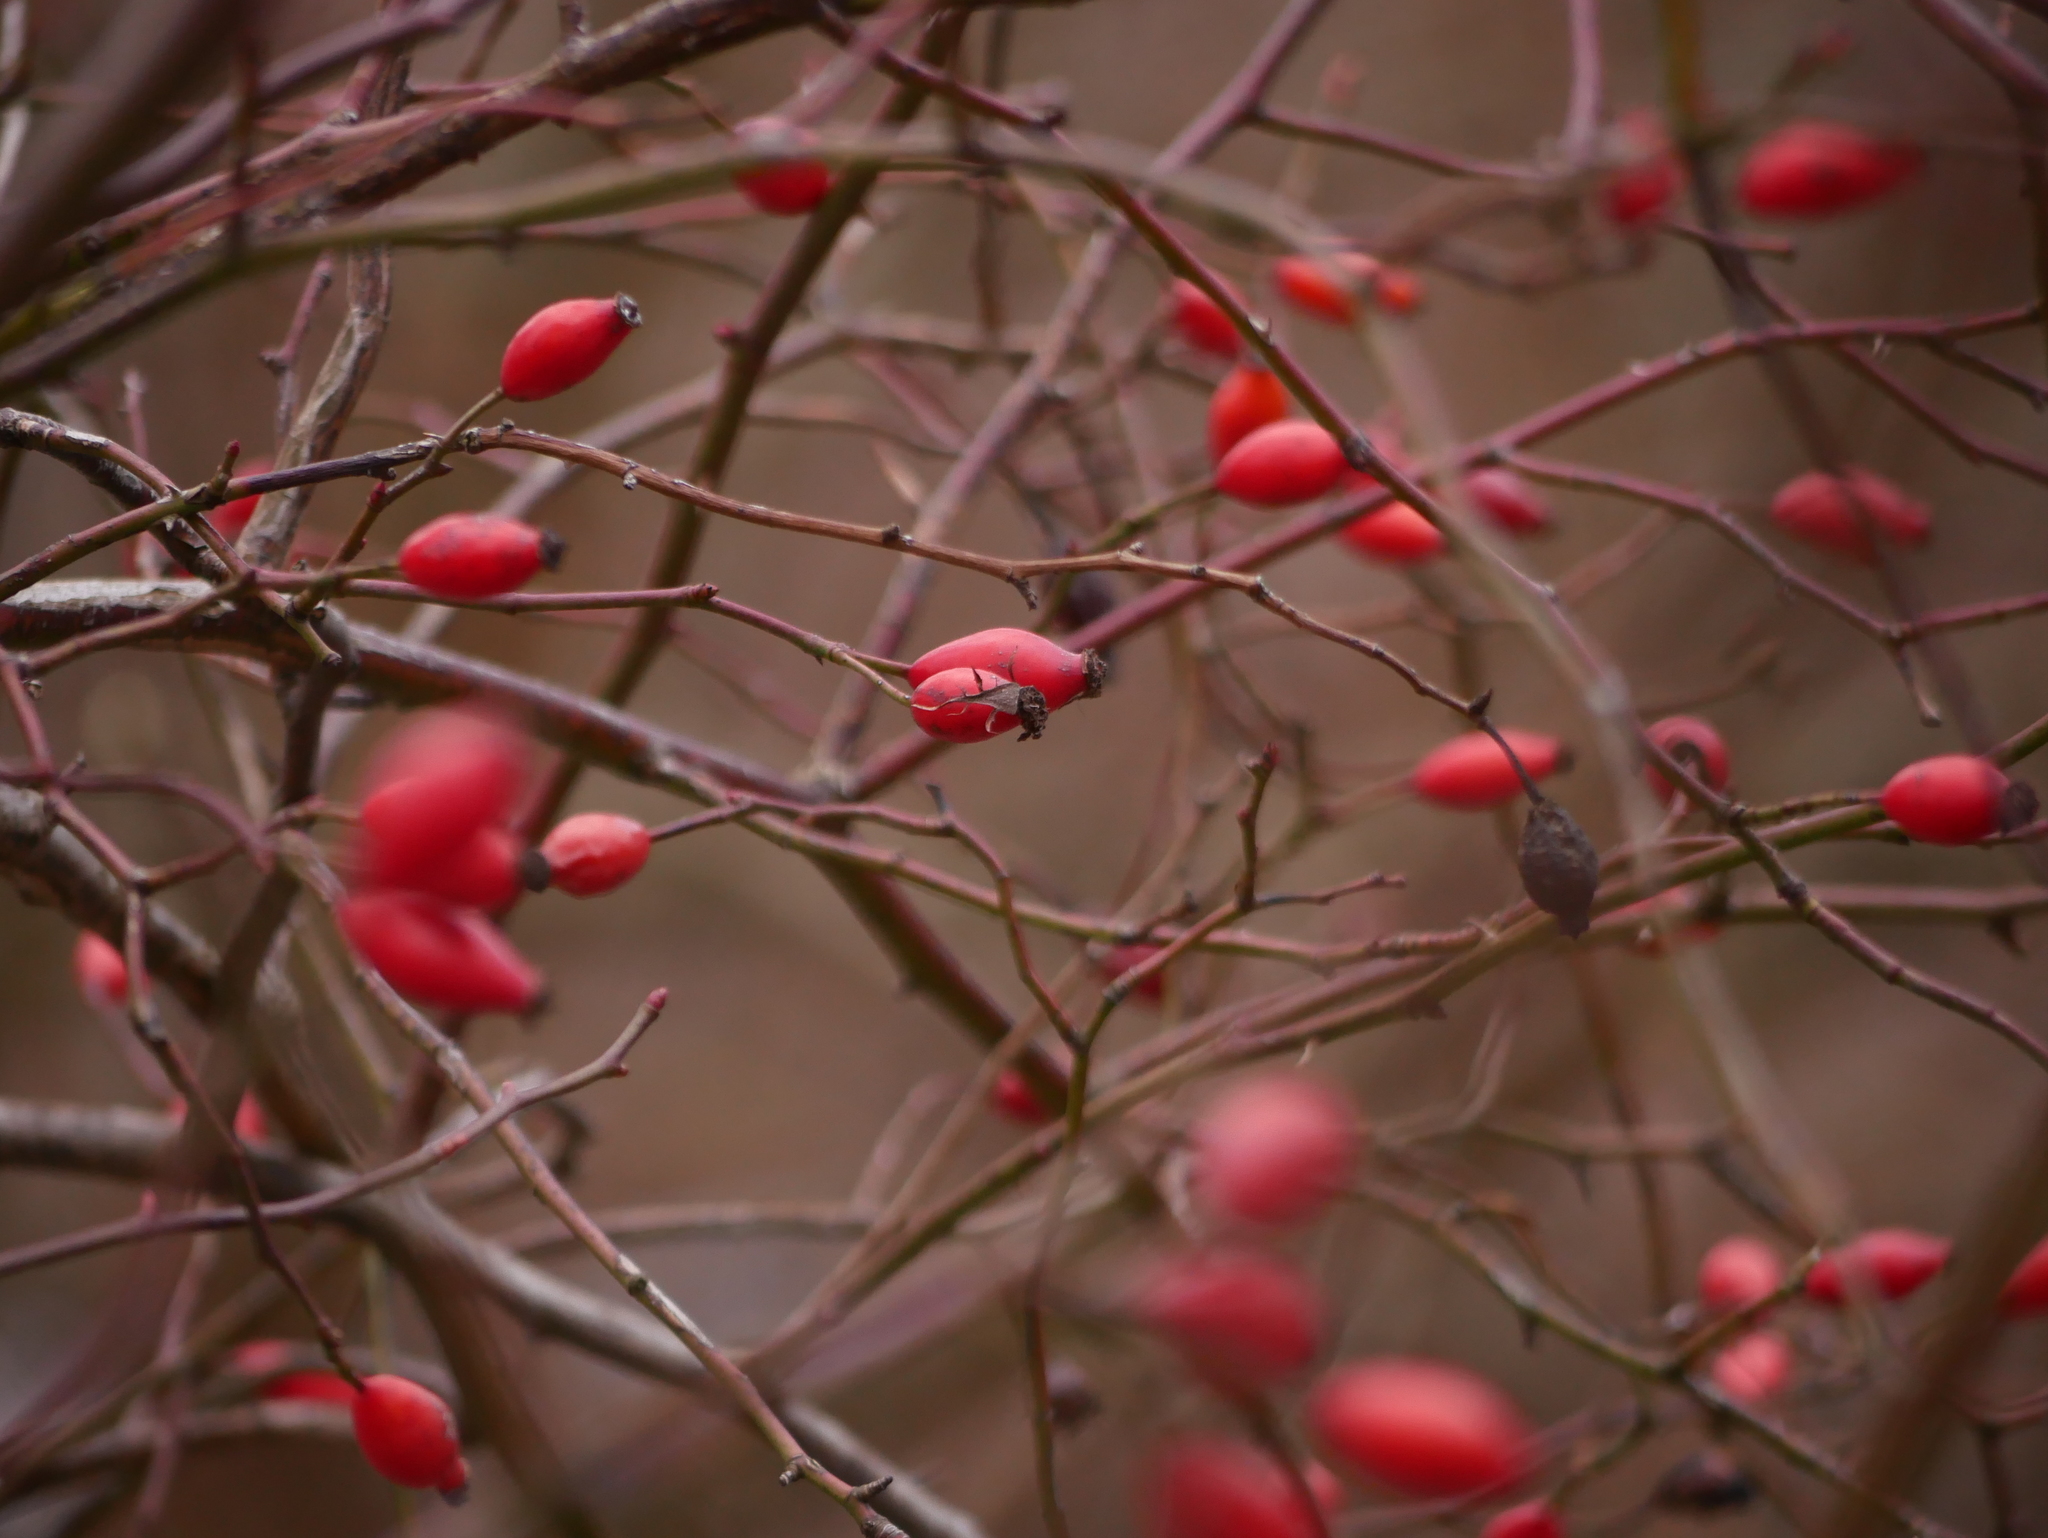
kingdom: Plantae
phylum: Tracheophyta
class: Magnoliopsida
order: Rosales
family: Rosaceae
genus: Rosa
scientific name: Rosa canina
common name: Dog rose
